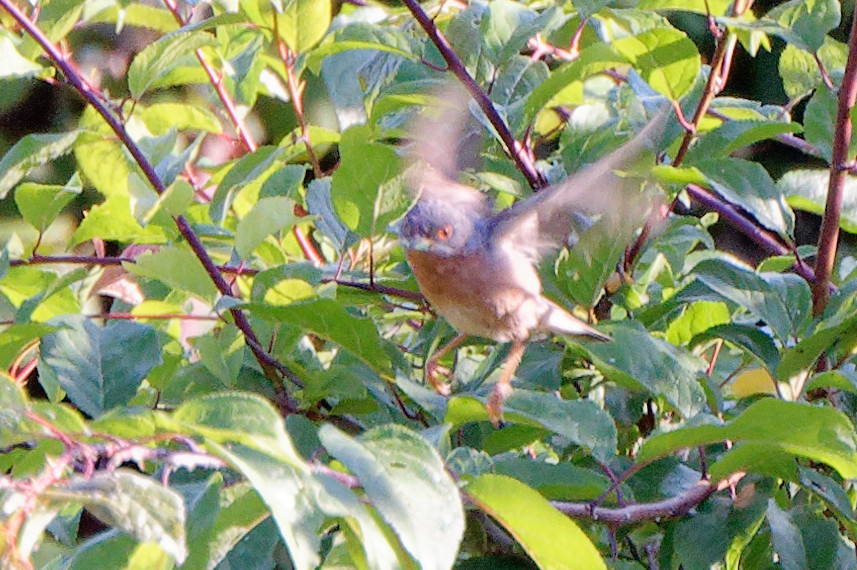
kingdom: Animalia
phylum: Chordata
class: Aves
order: Passeriformes
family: Sylviidae
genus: Curruca
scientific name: Curruca subalpina
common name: Moltoni's warbler
